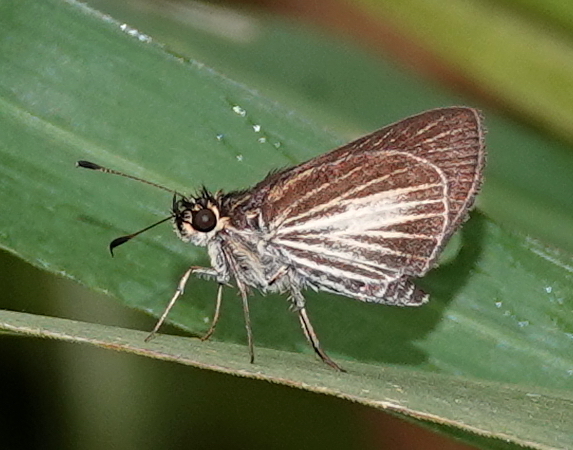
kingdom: Animalia
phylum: Arthropoda
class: Insecta
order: Lepidoptera
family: Hesperiidae
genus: Callimormus
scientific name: Callimormus radiola
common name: Radiant skipper
